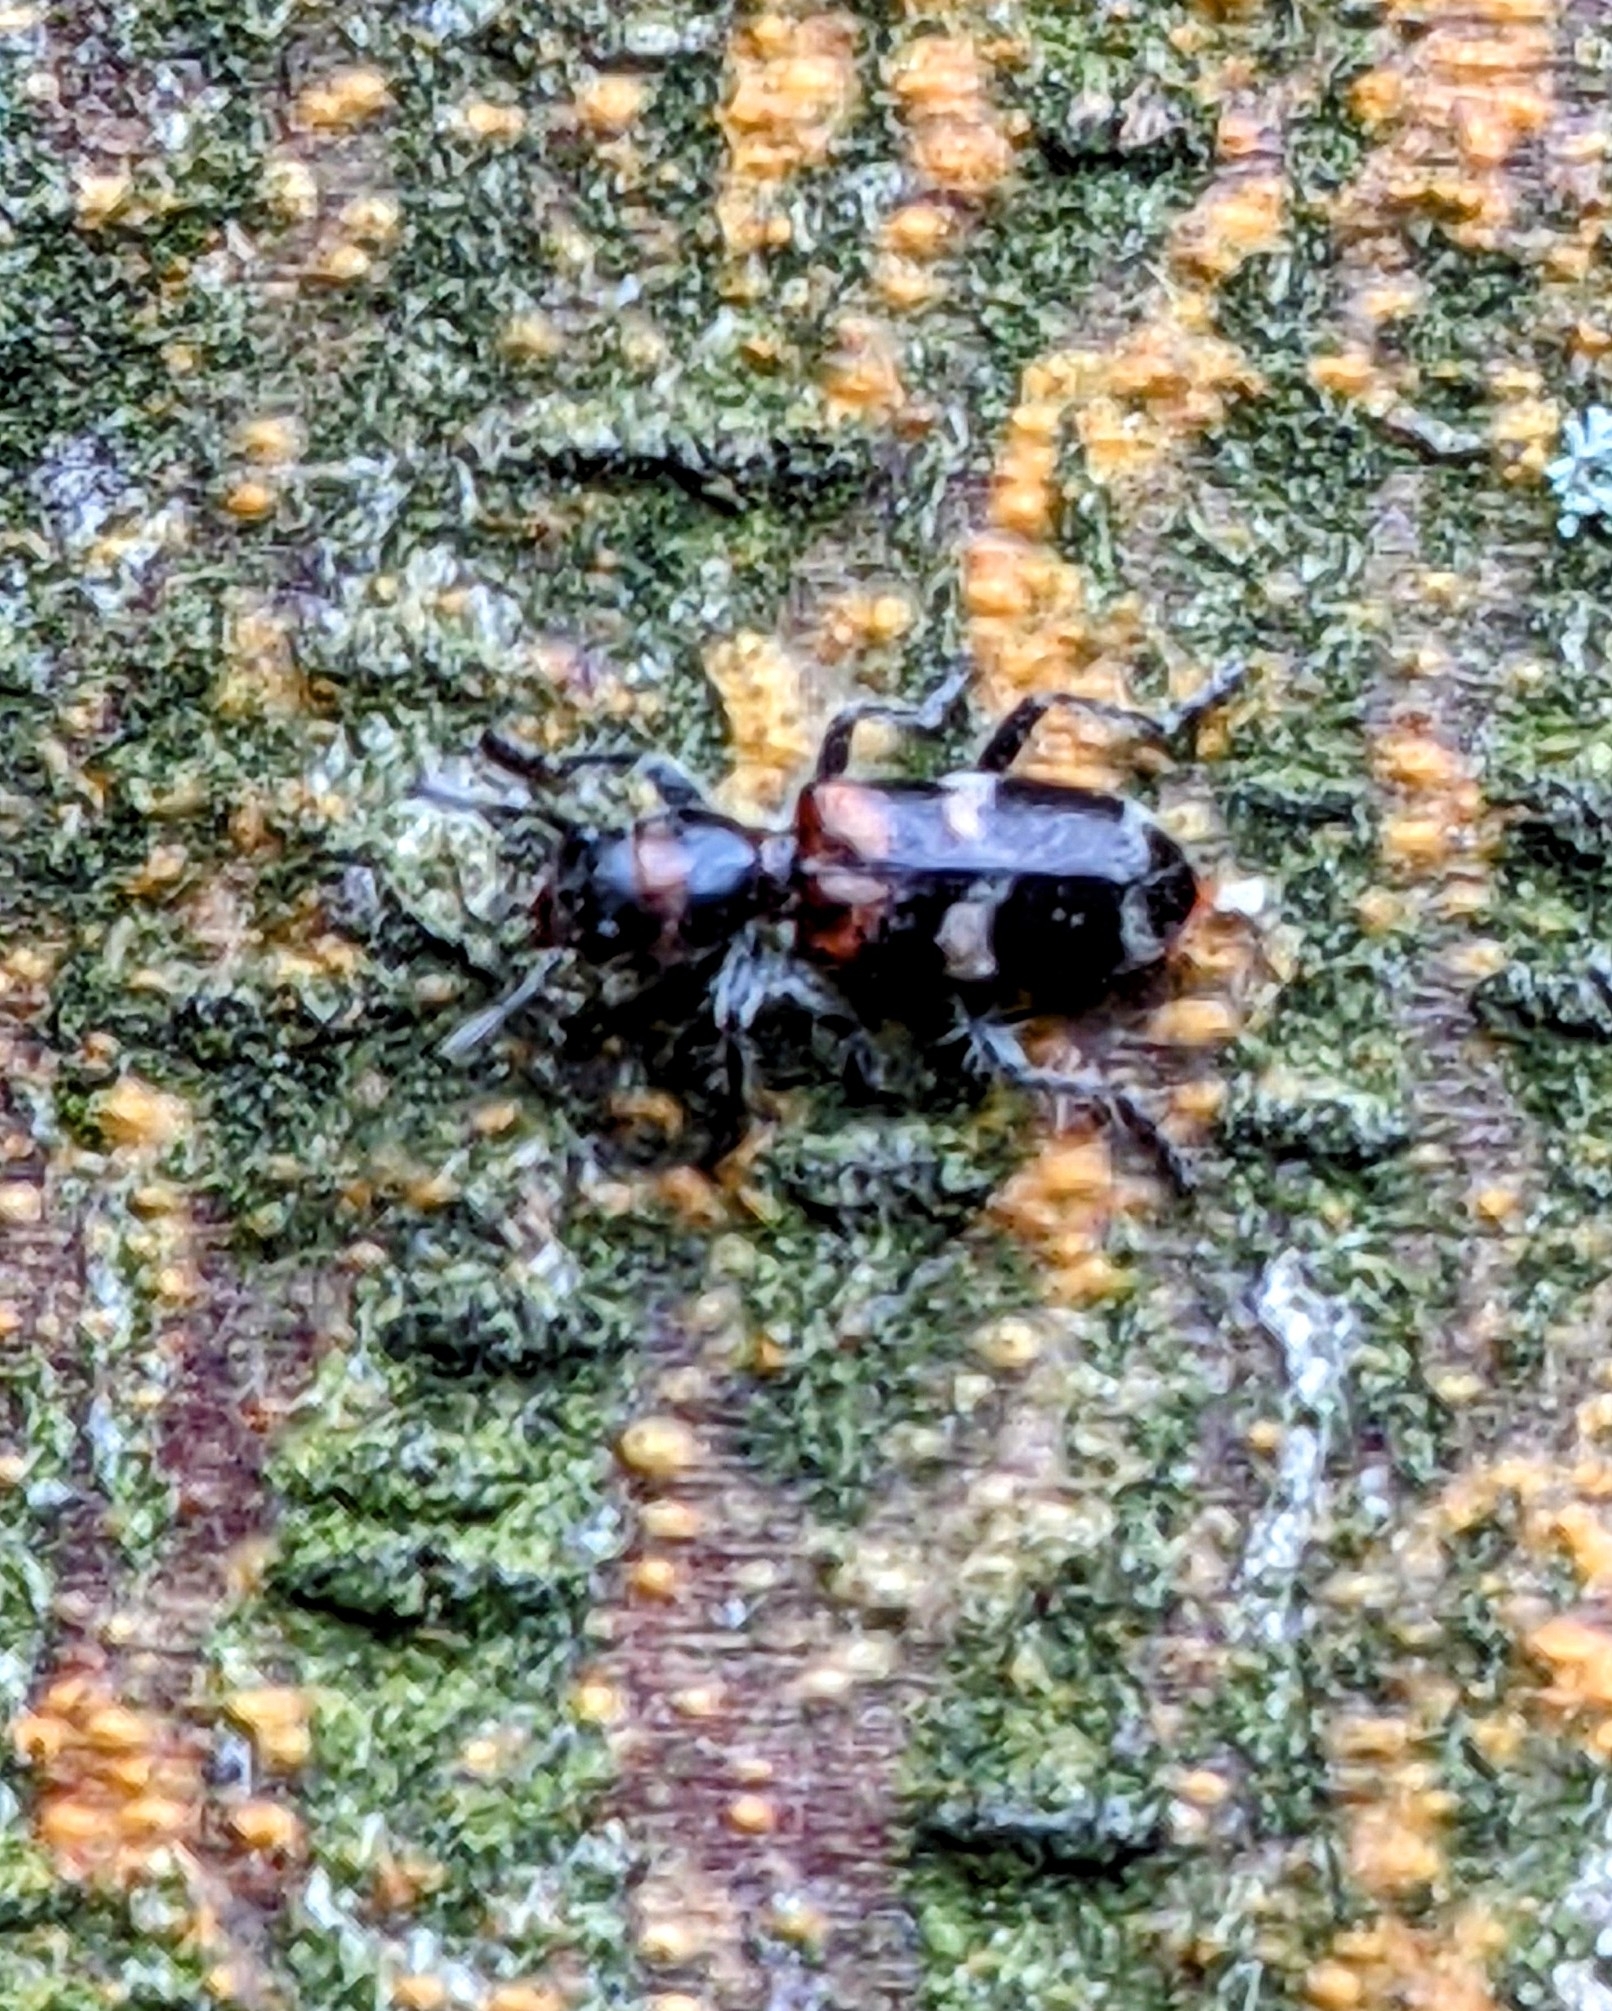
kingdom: Animalia
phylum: Arthropoda
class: Insecta
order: Coleoptera
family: Cleridae
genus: Enoclerus
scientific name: Enoclerus nigrifrons
